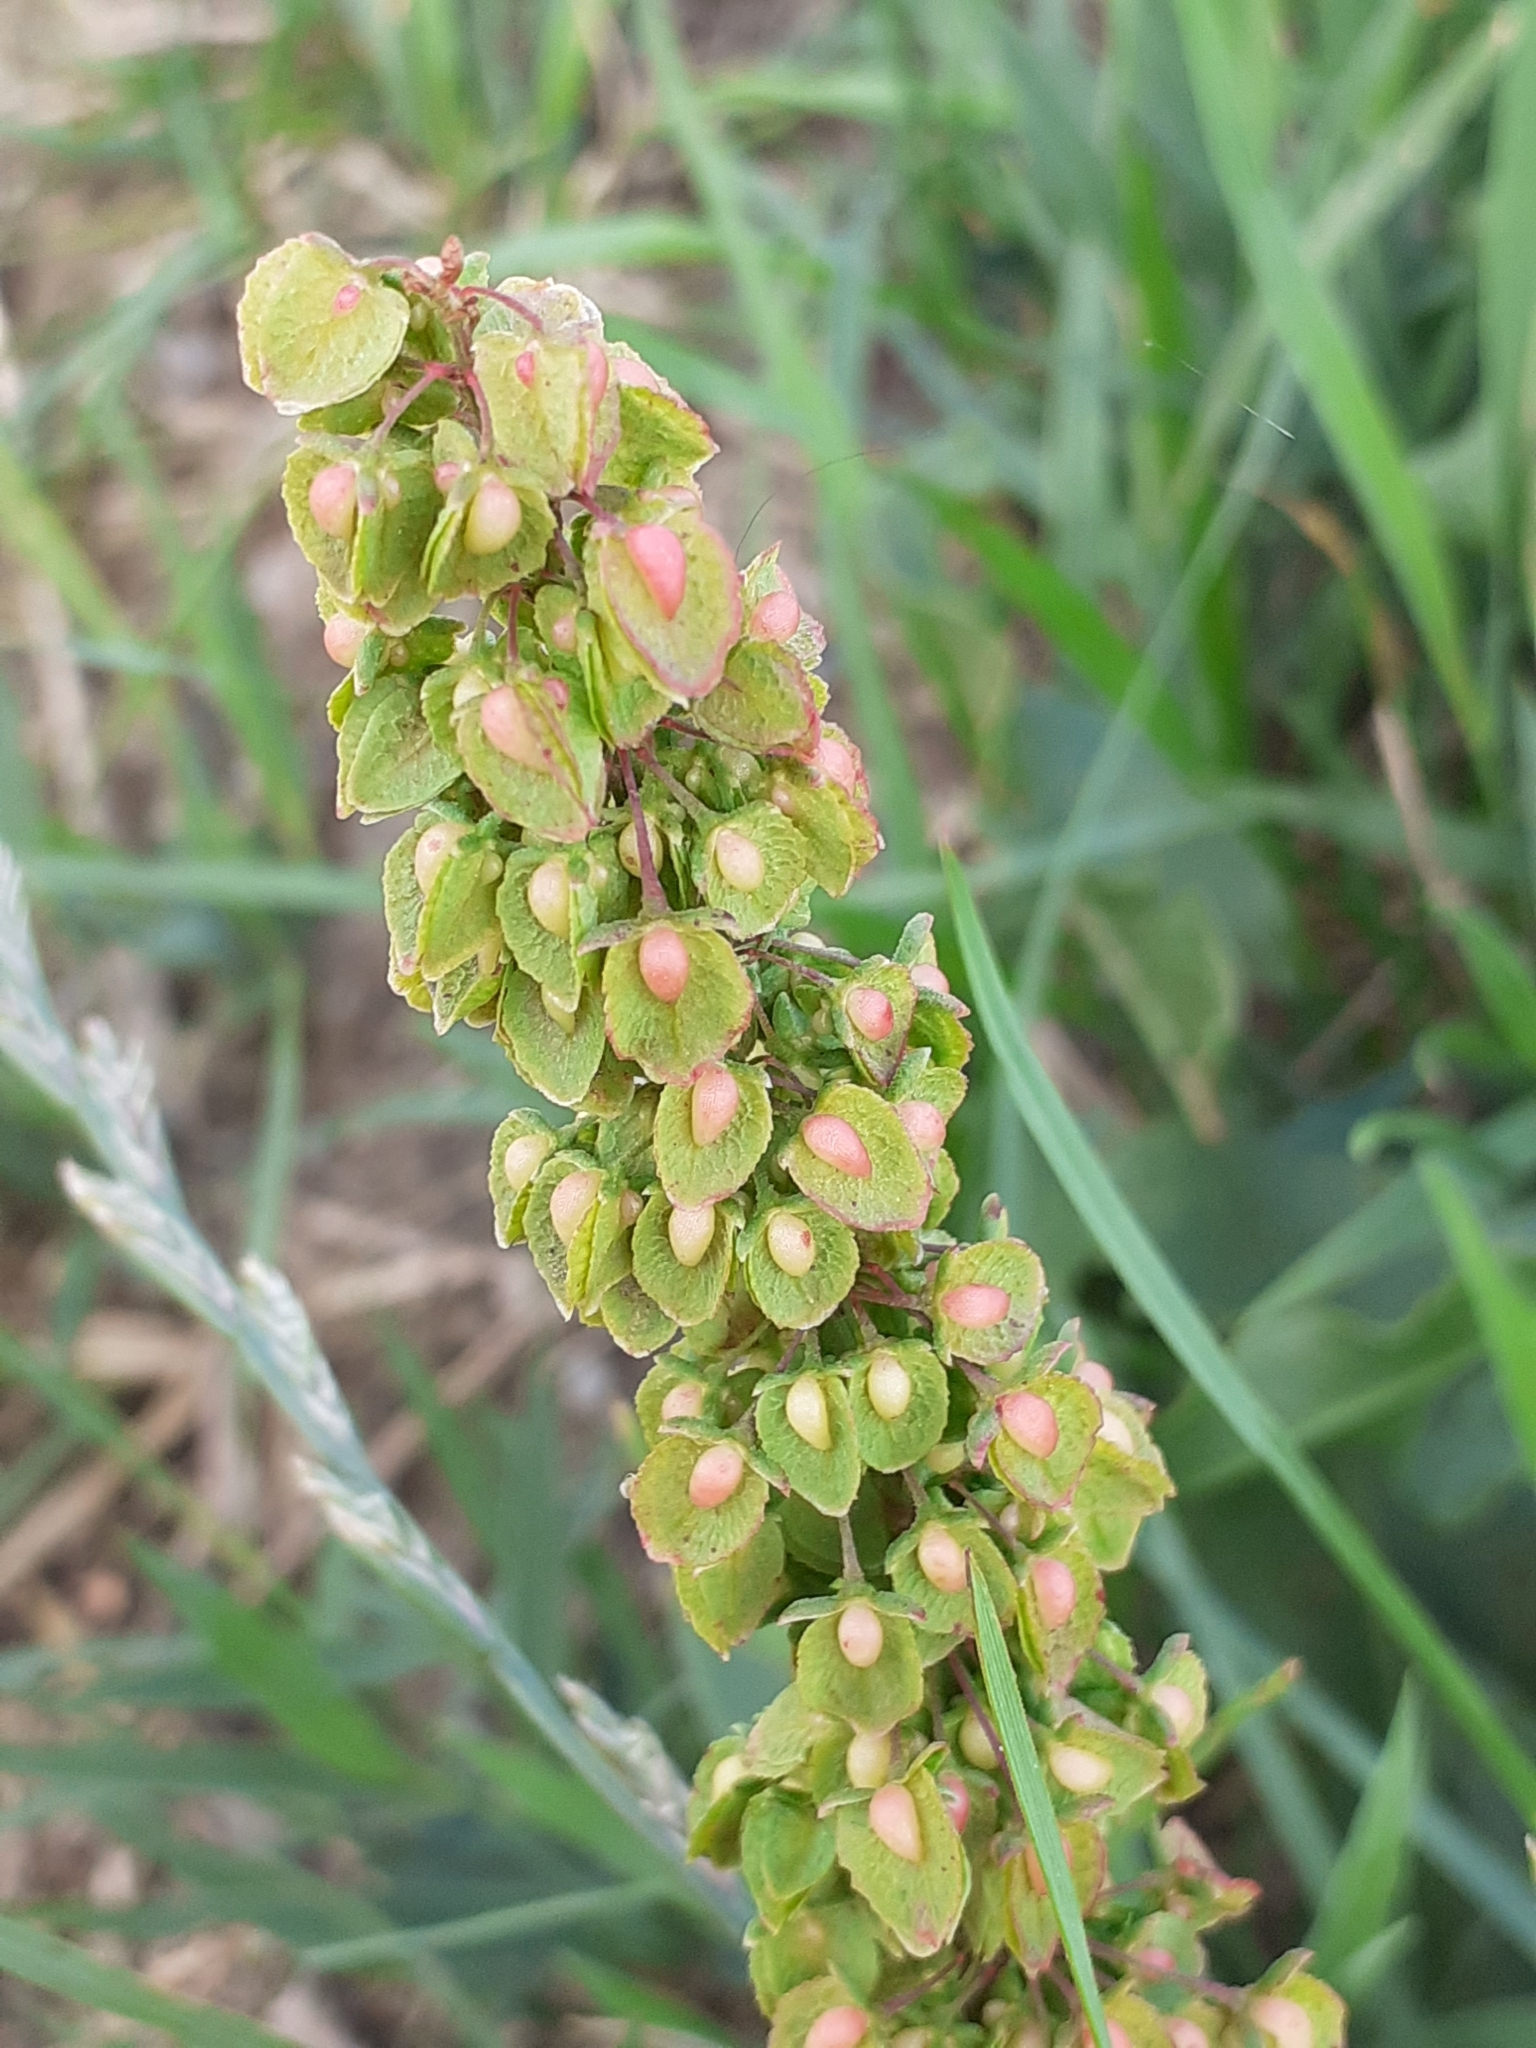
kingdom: Plantae
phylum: Tracheophyta
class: Magnoliopsida
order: Caryophyllales
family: Polygonaceae
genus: Rumex
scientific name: Rumex crispus
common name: Curled dock
